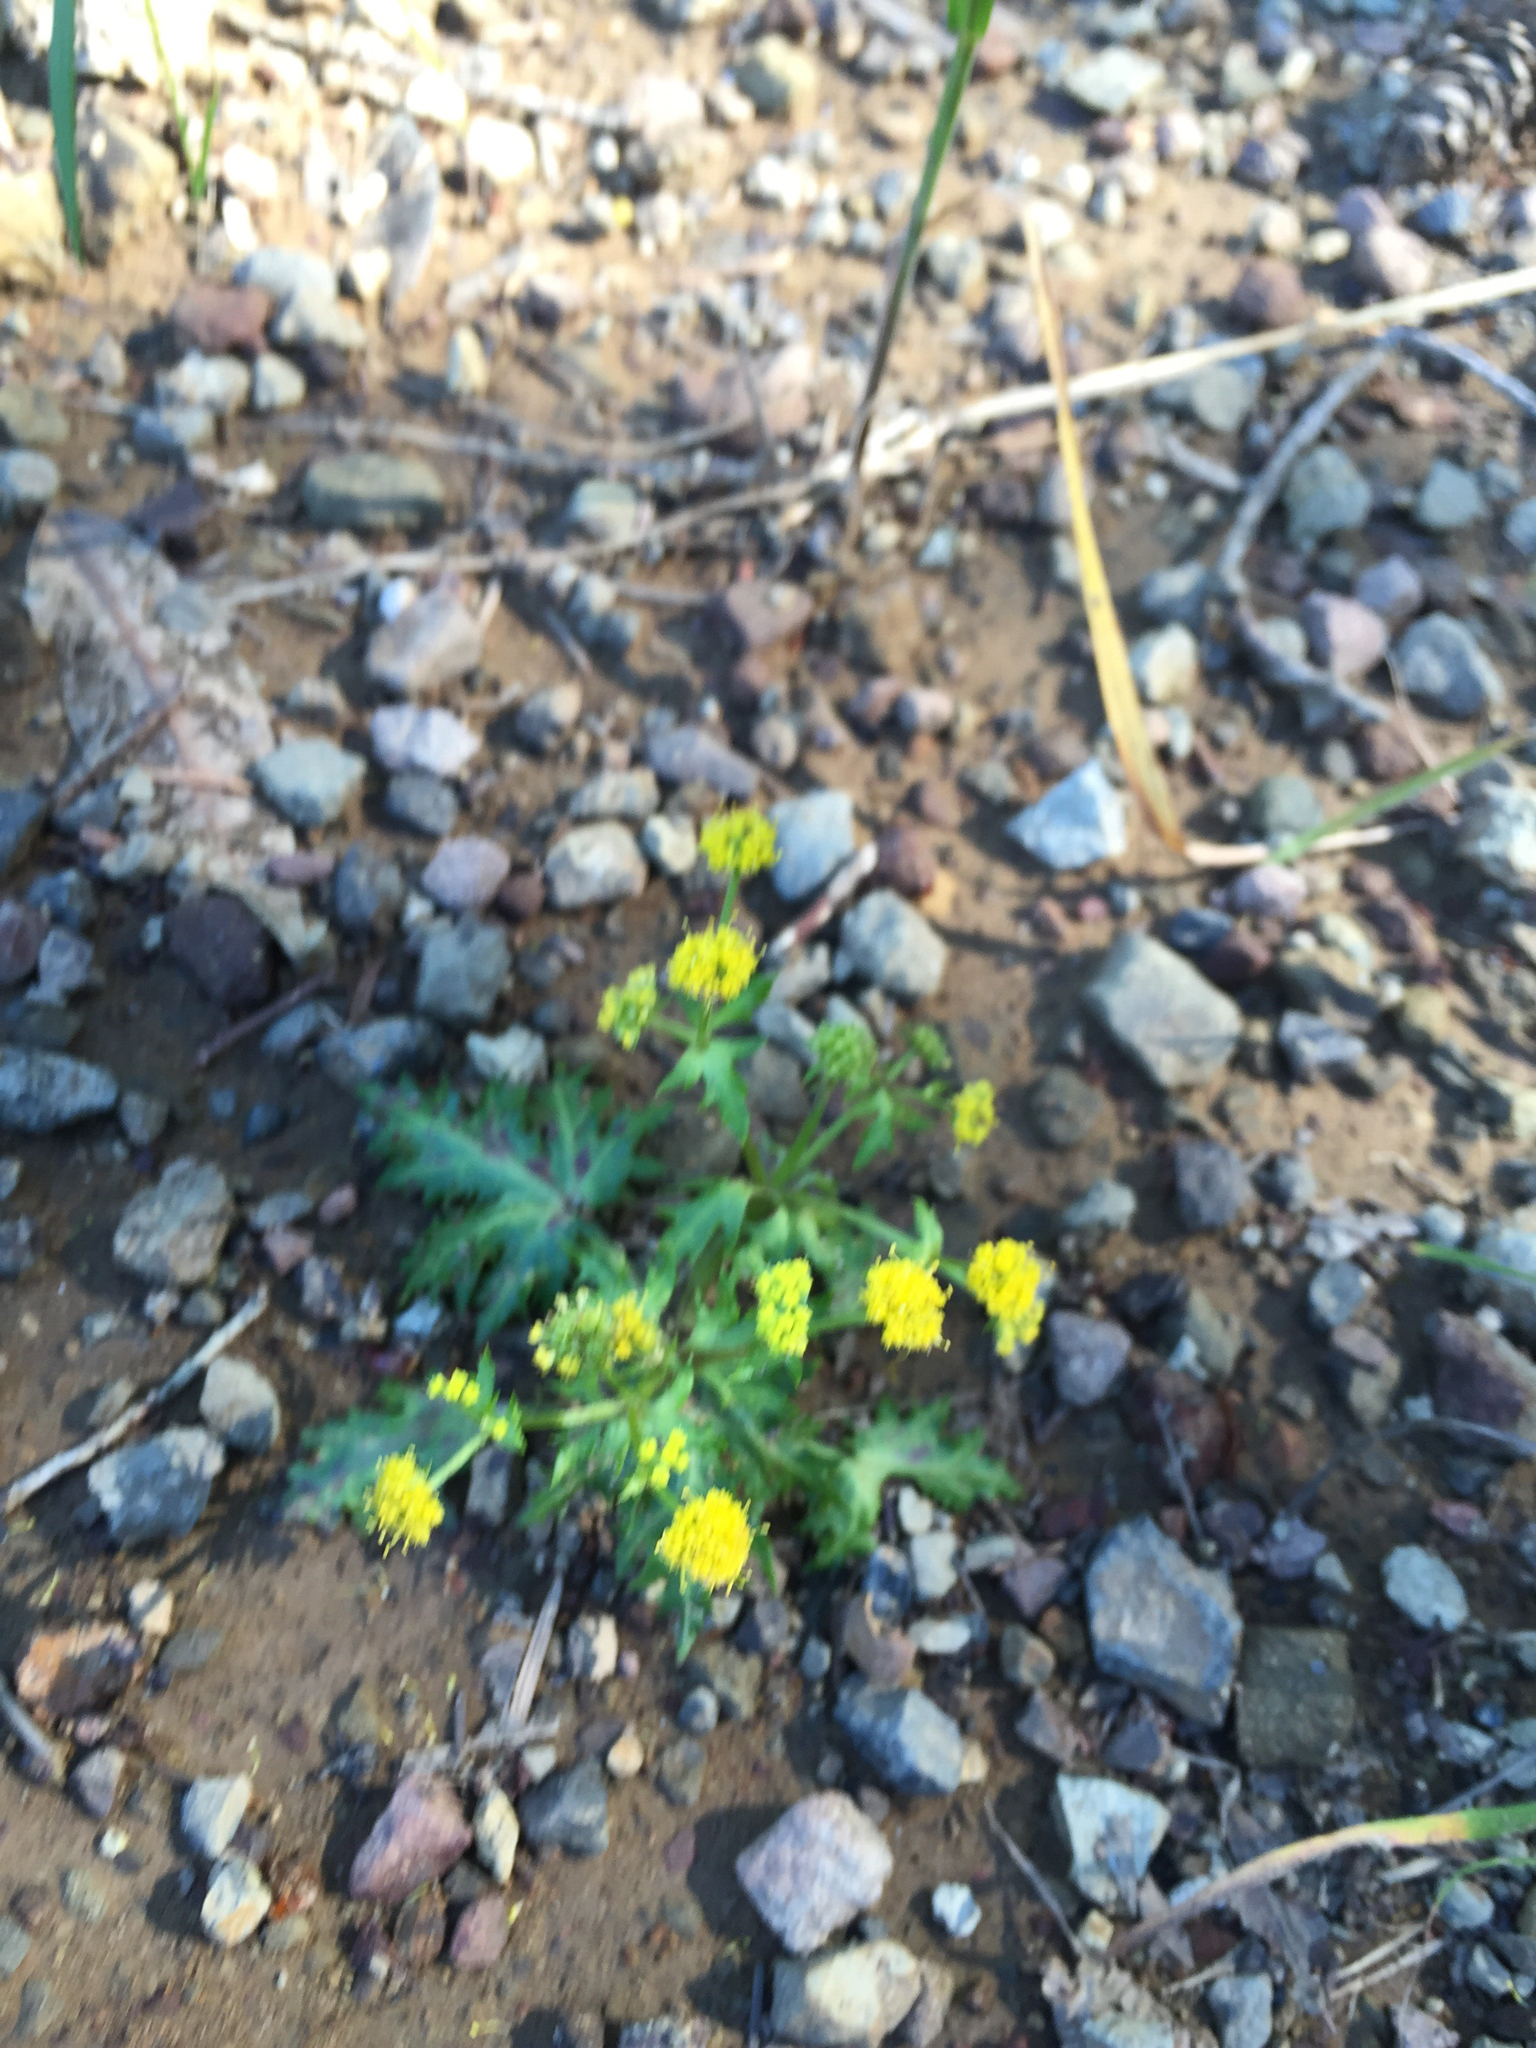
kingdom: Plantae
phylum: Tracheophyta
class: Magnoliopsida
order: Apiales
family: Apiaceae
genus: Sanicula
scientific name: Sanicula laciniata
